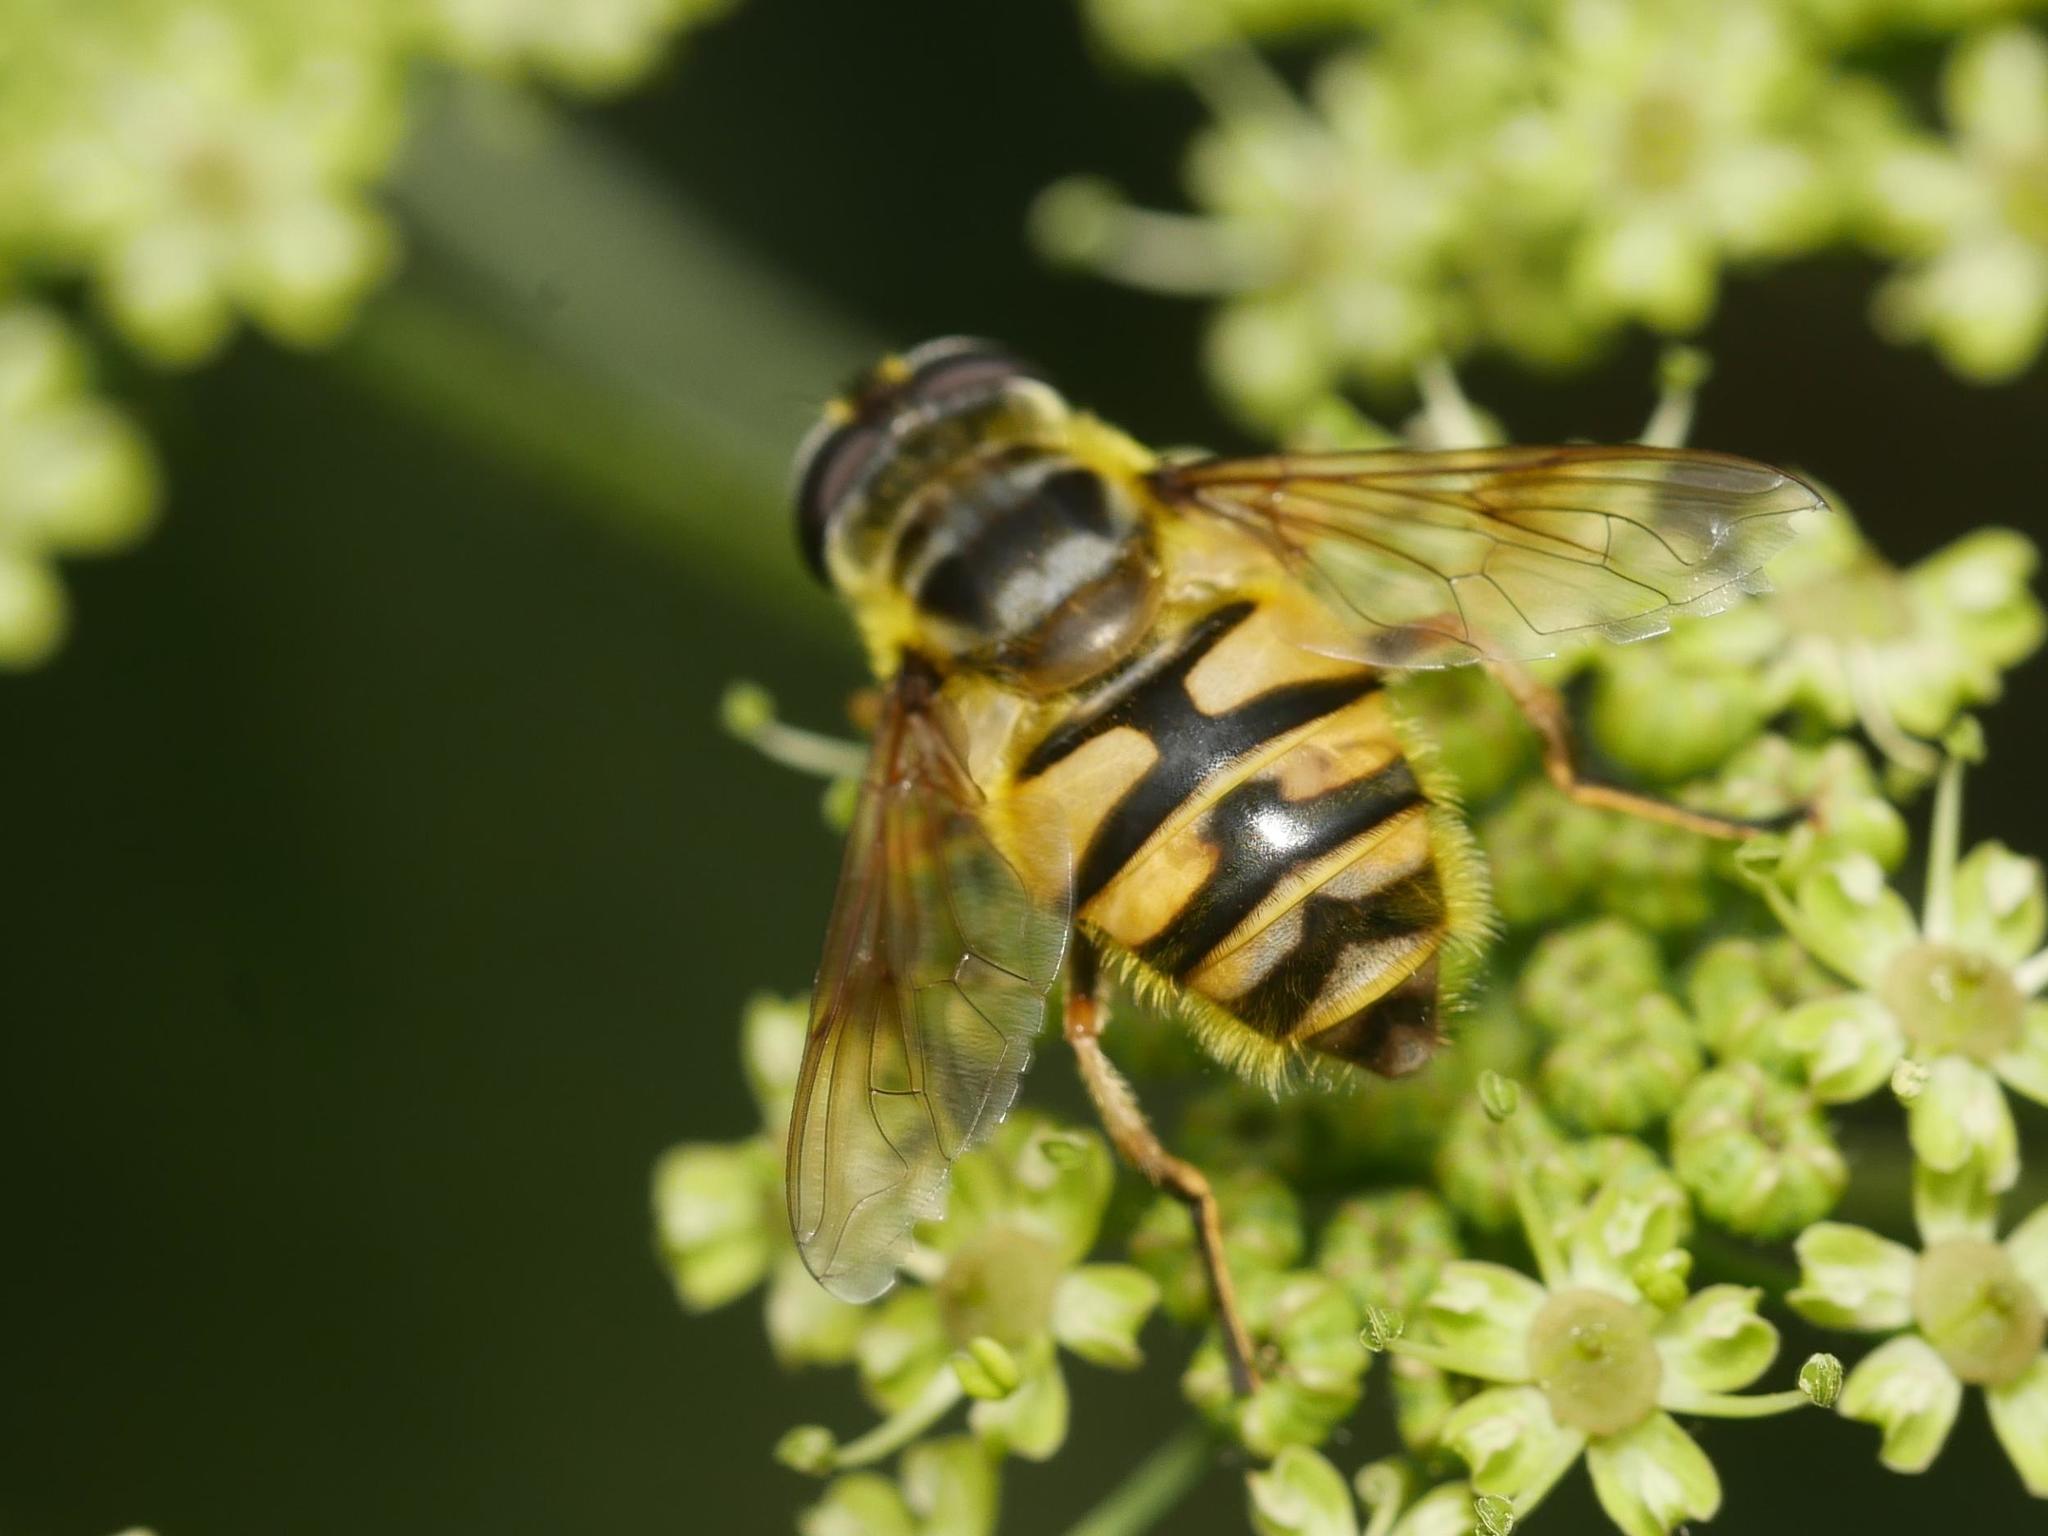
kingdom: Animalia
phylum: Arthropoda
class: Insecta
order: Diptera
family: Syrphidae
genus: Myathropa
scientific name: Myathropa florea
